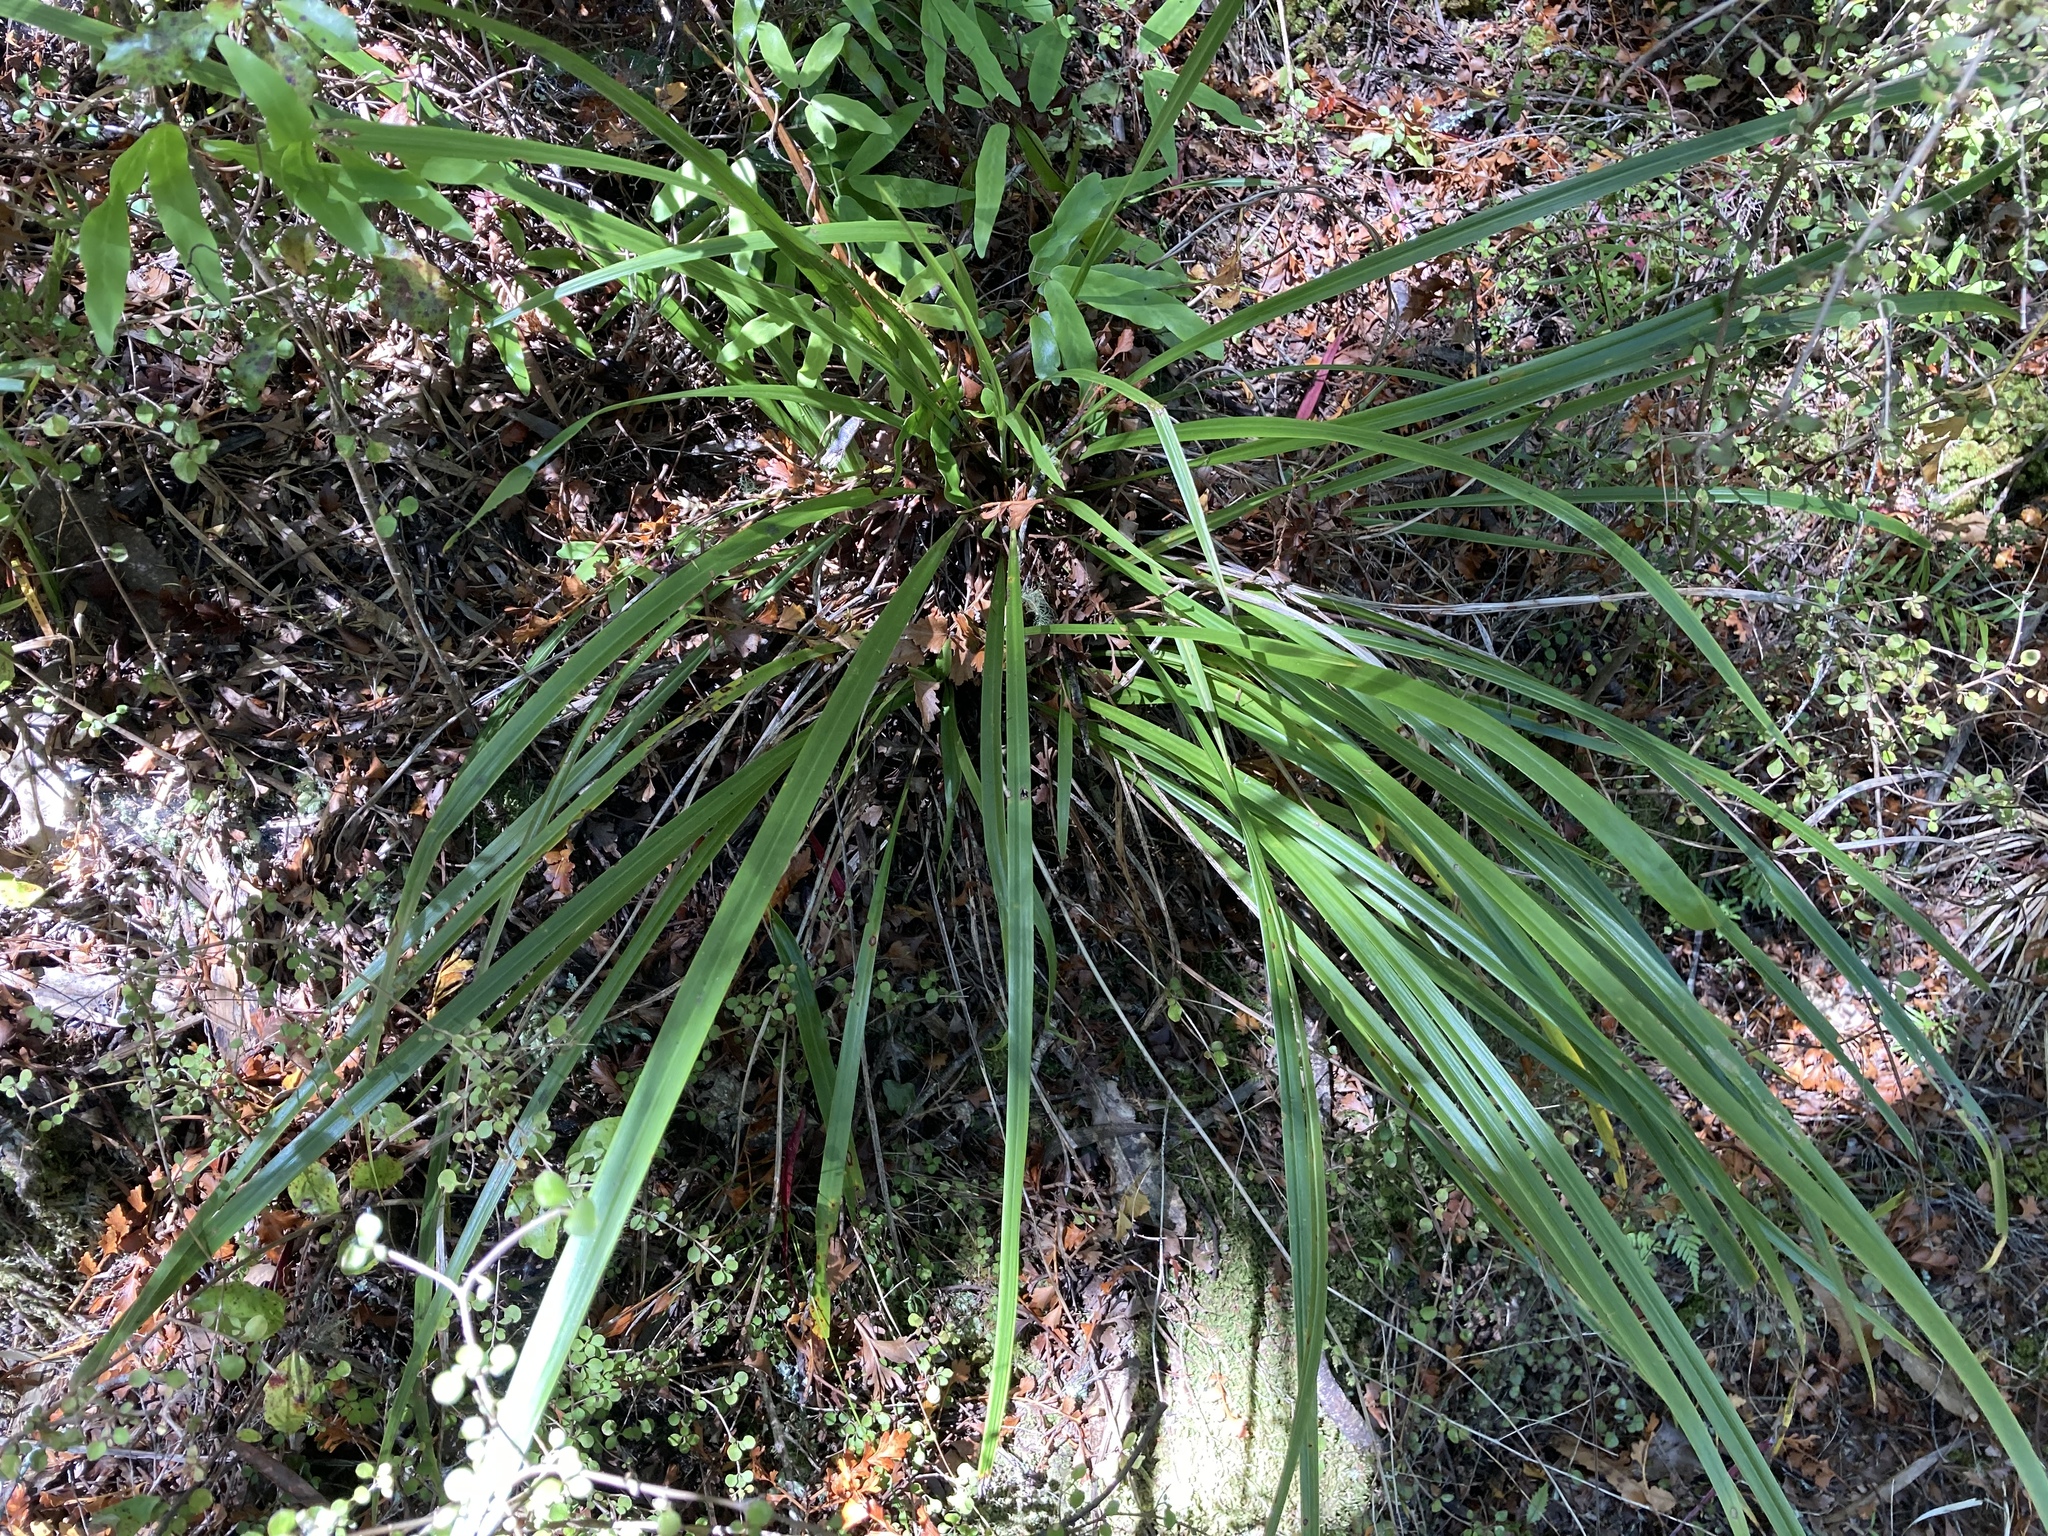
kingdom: Plantae
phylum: Tracheophyta
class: Liliopsida
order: Asparagales
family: Asparagaceae
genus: Cordyline
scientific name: Cordyline pumilio
